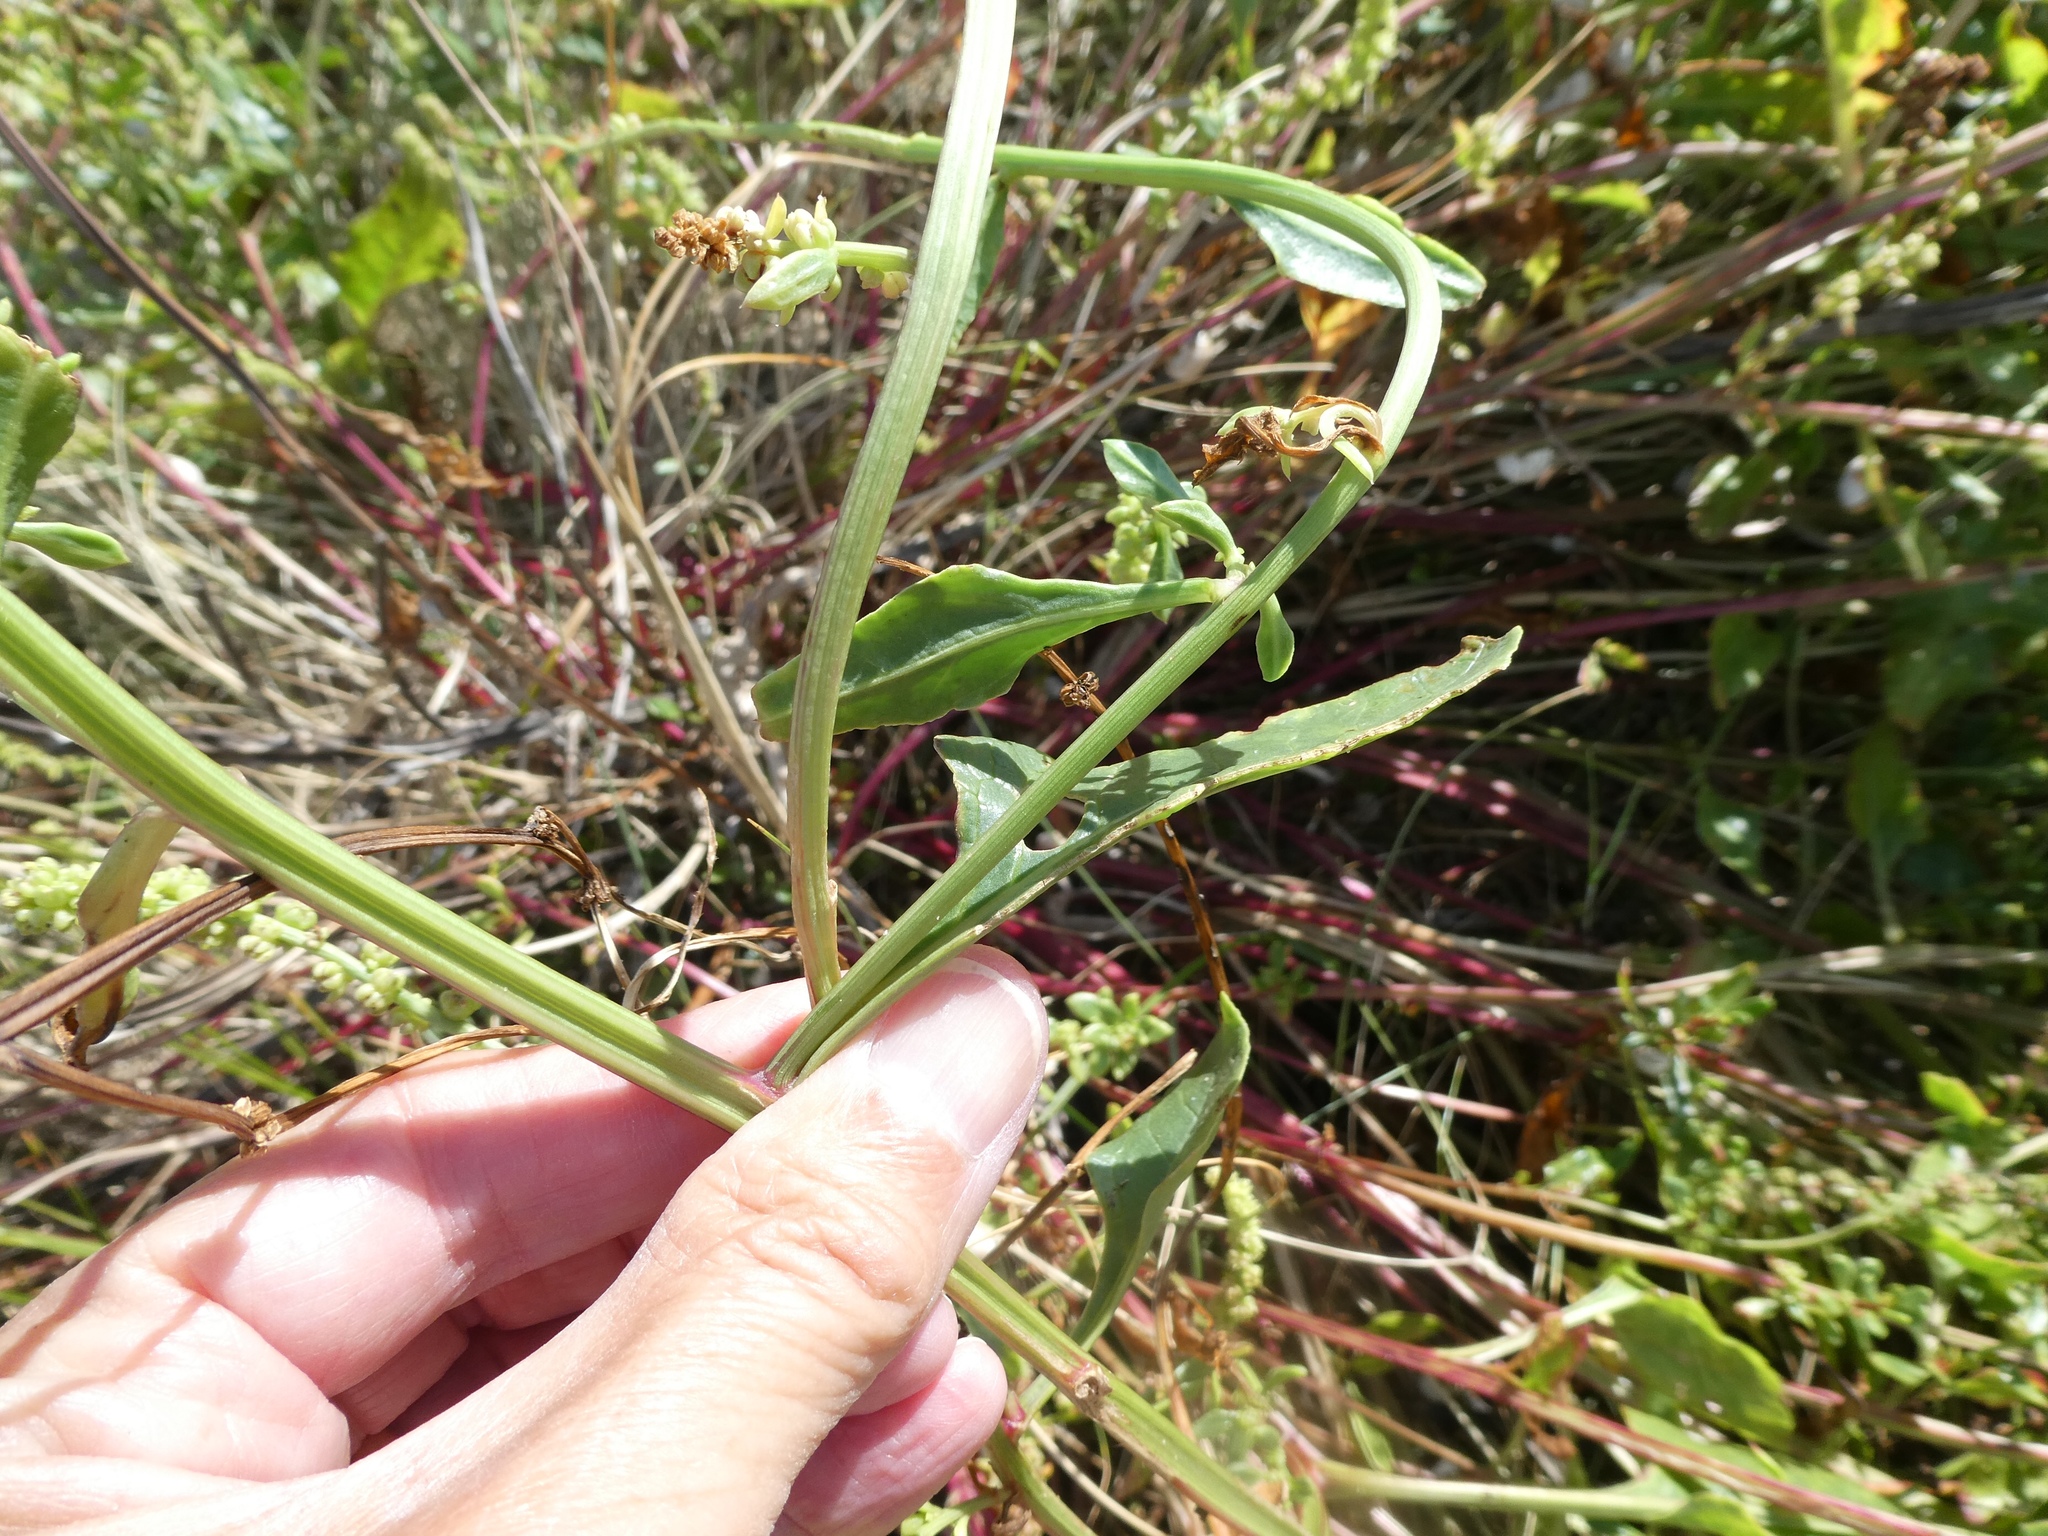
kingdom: Plantae
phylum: Tracheophyta
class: Magnoliopsida
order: Caryophyllales
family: Amaranthaceae
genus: Beta
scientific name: Beta vulgaris
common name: Beet
